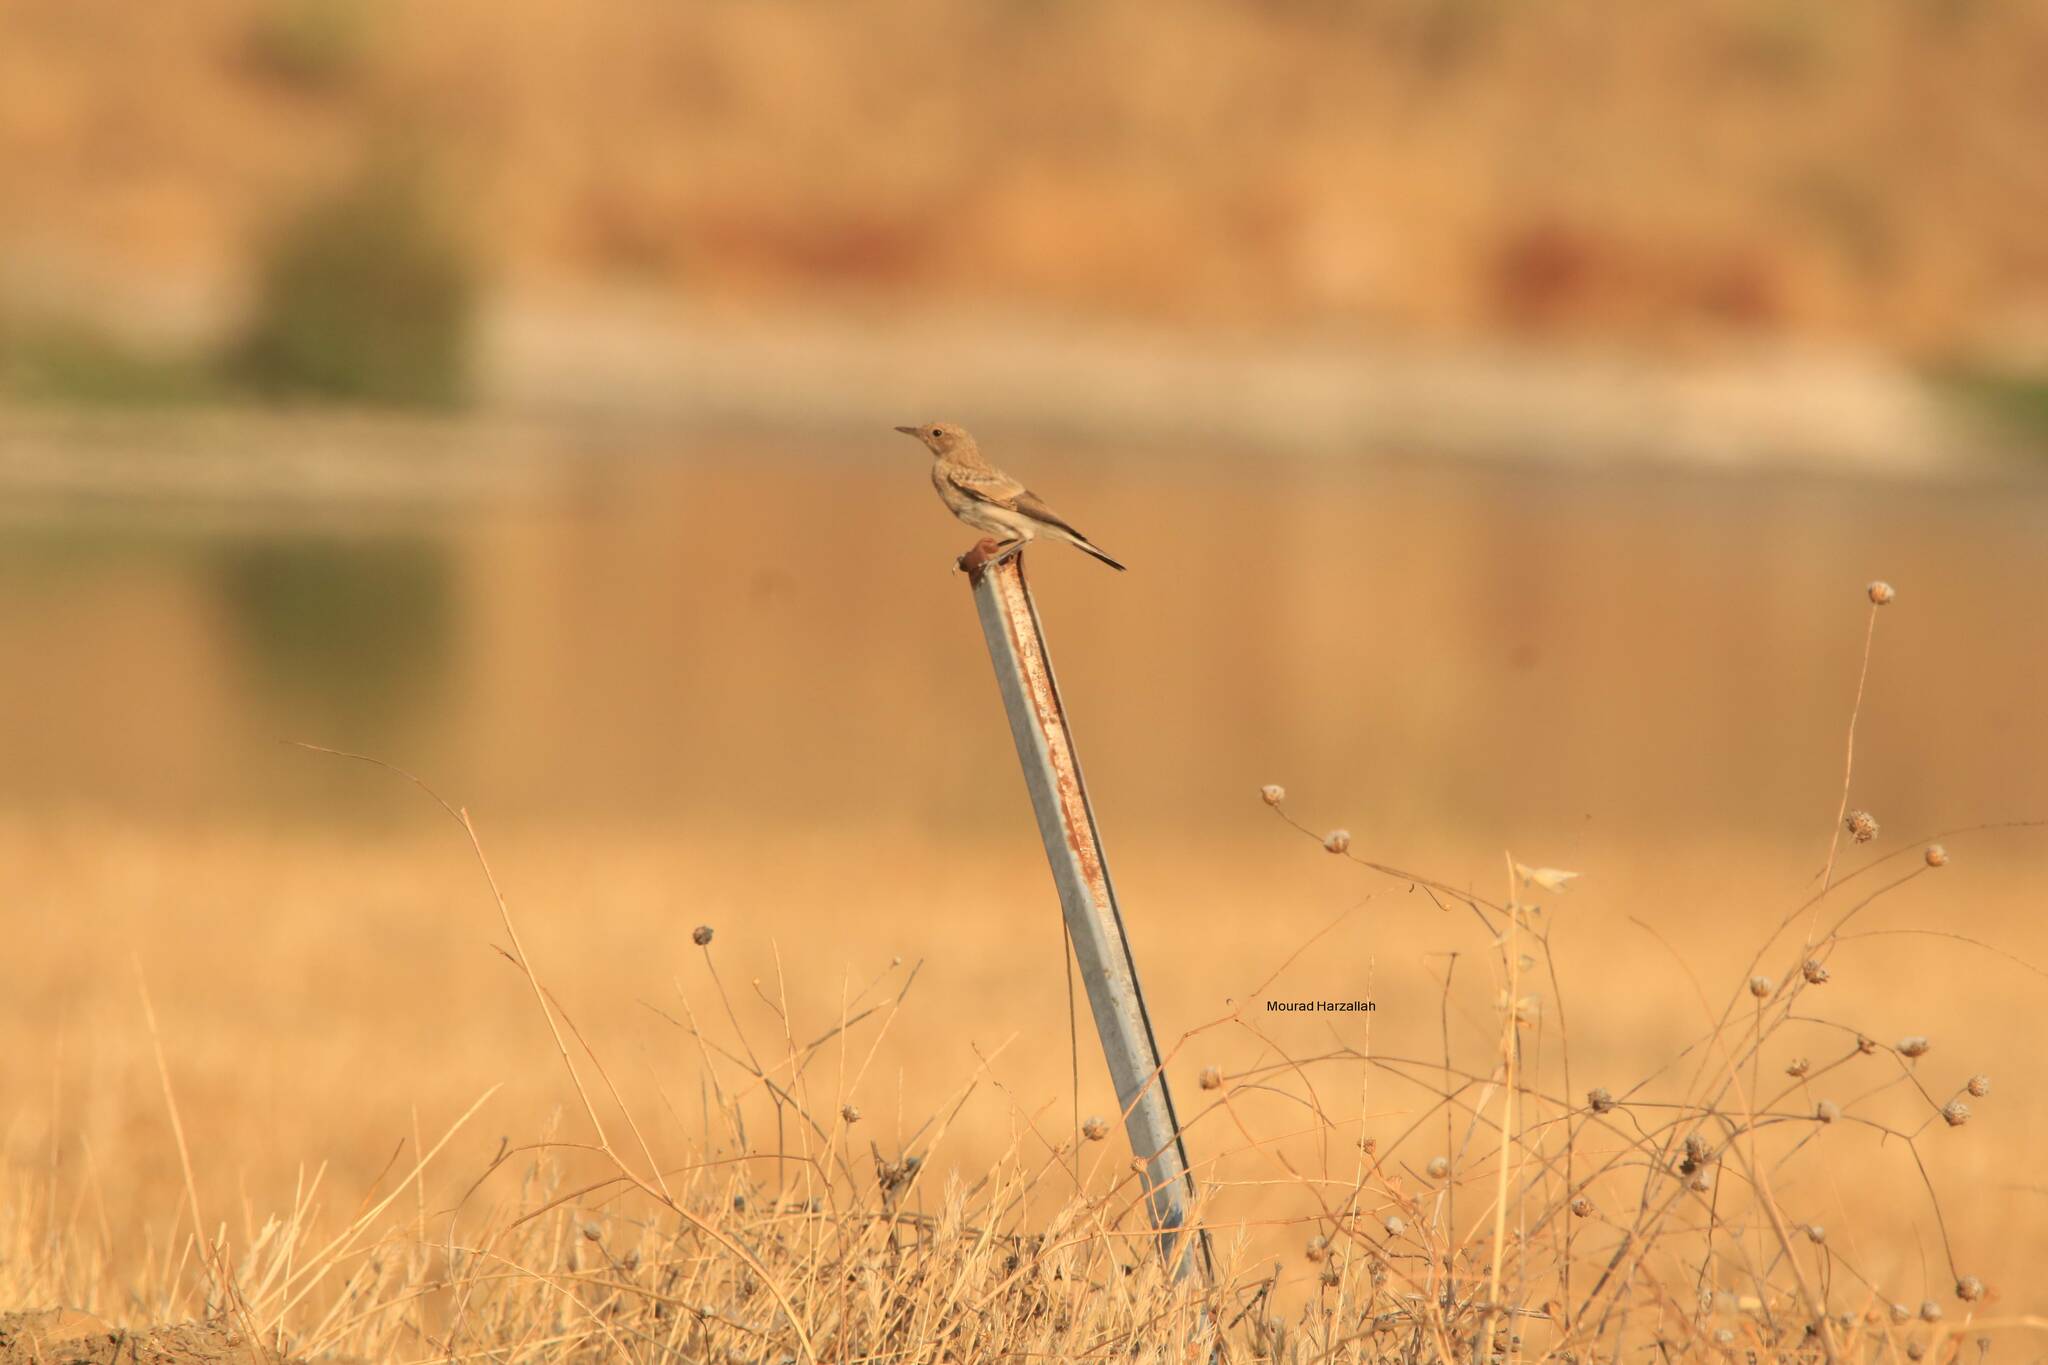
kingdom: Animalia
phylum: Chordata
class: Aves
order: Passeriformes
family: Muscicapidae
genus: Oenanthe
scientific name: Oenanthe hispanica
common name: Black-eared wheatear
